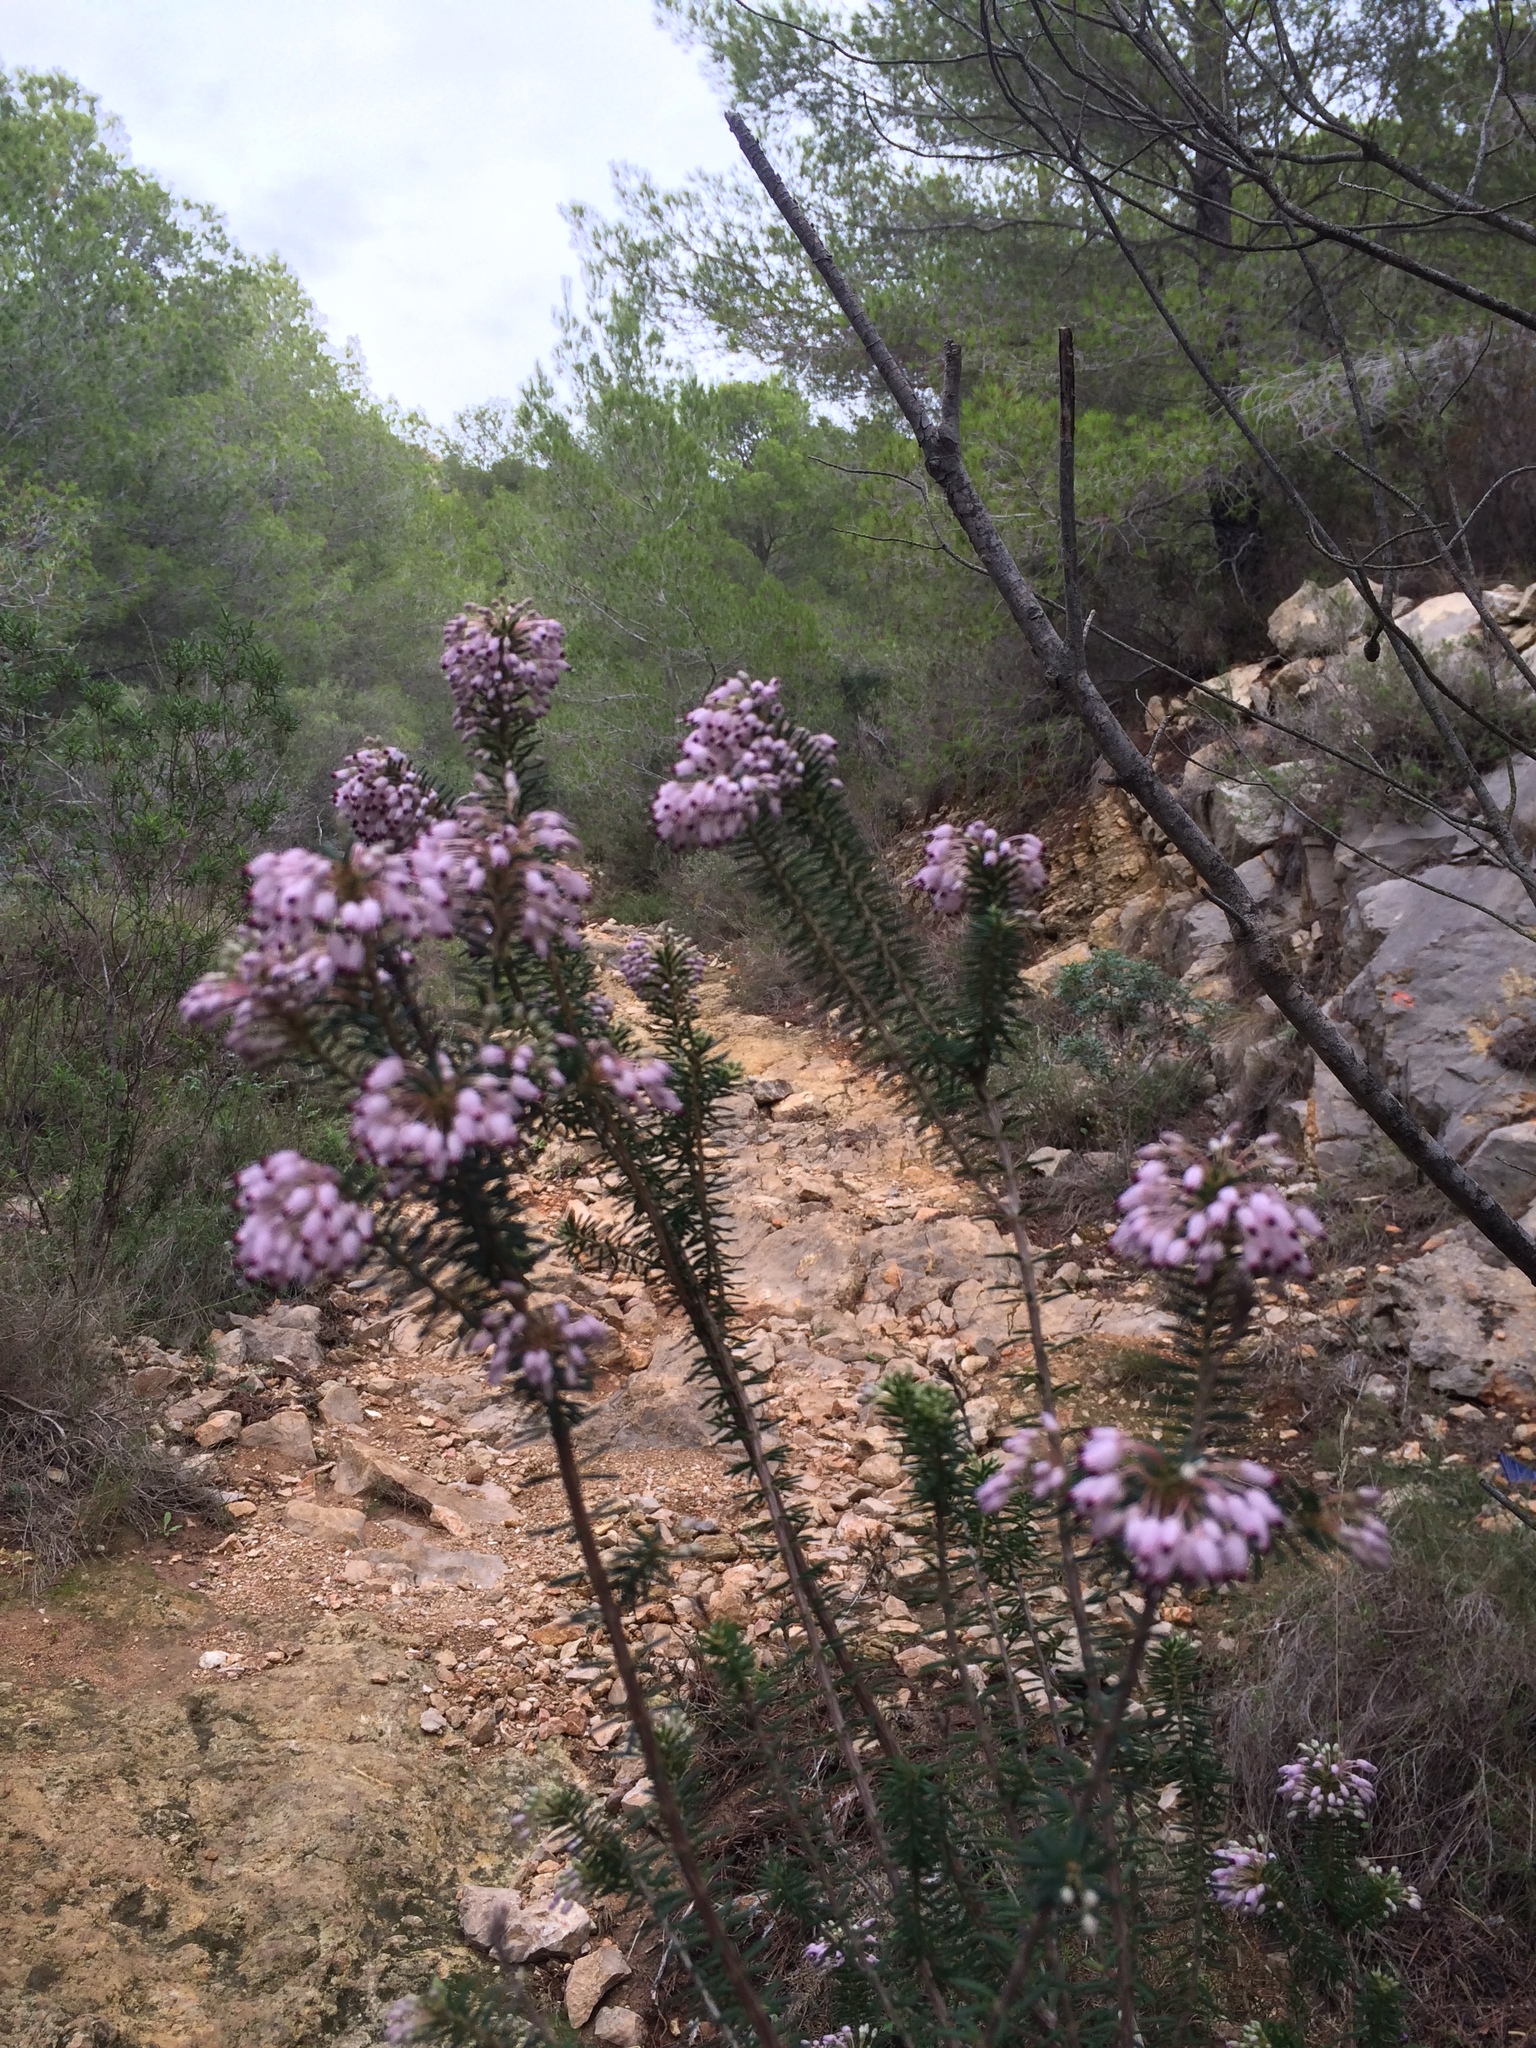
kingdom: Plantae
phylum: Tracheophyta
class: Magnoliopsida
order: Ericales
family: Ericaceae
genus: Erica
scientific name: Erica multiflora
